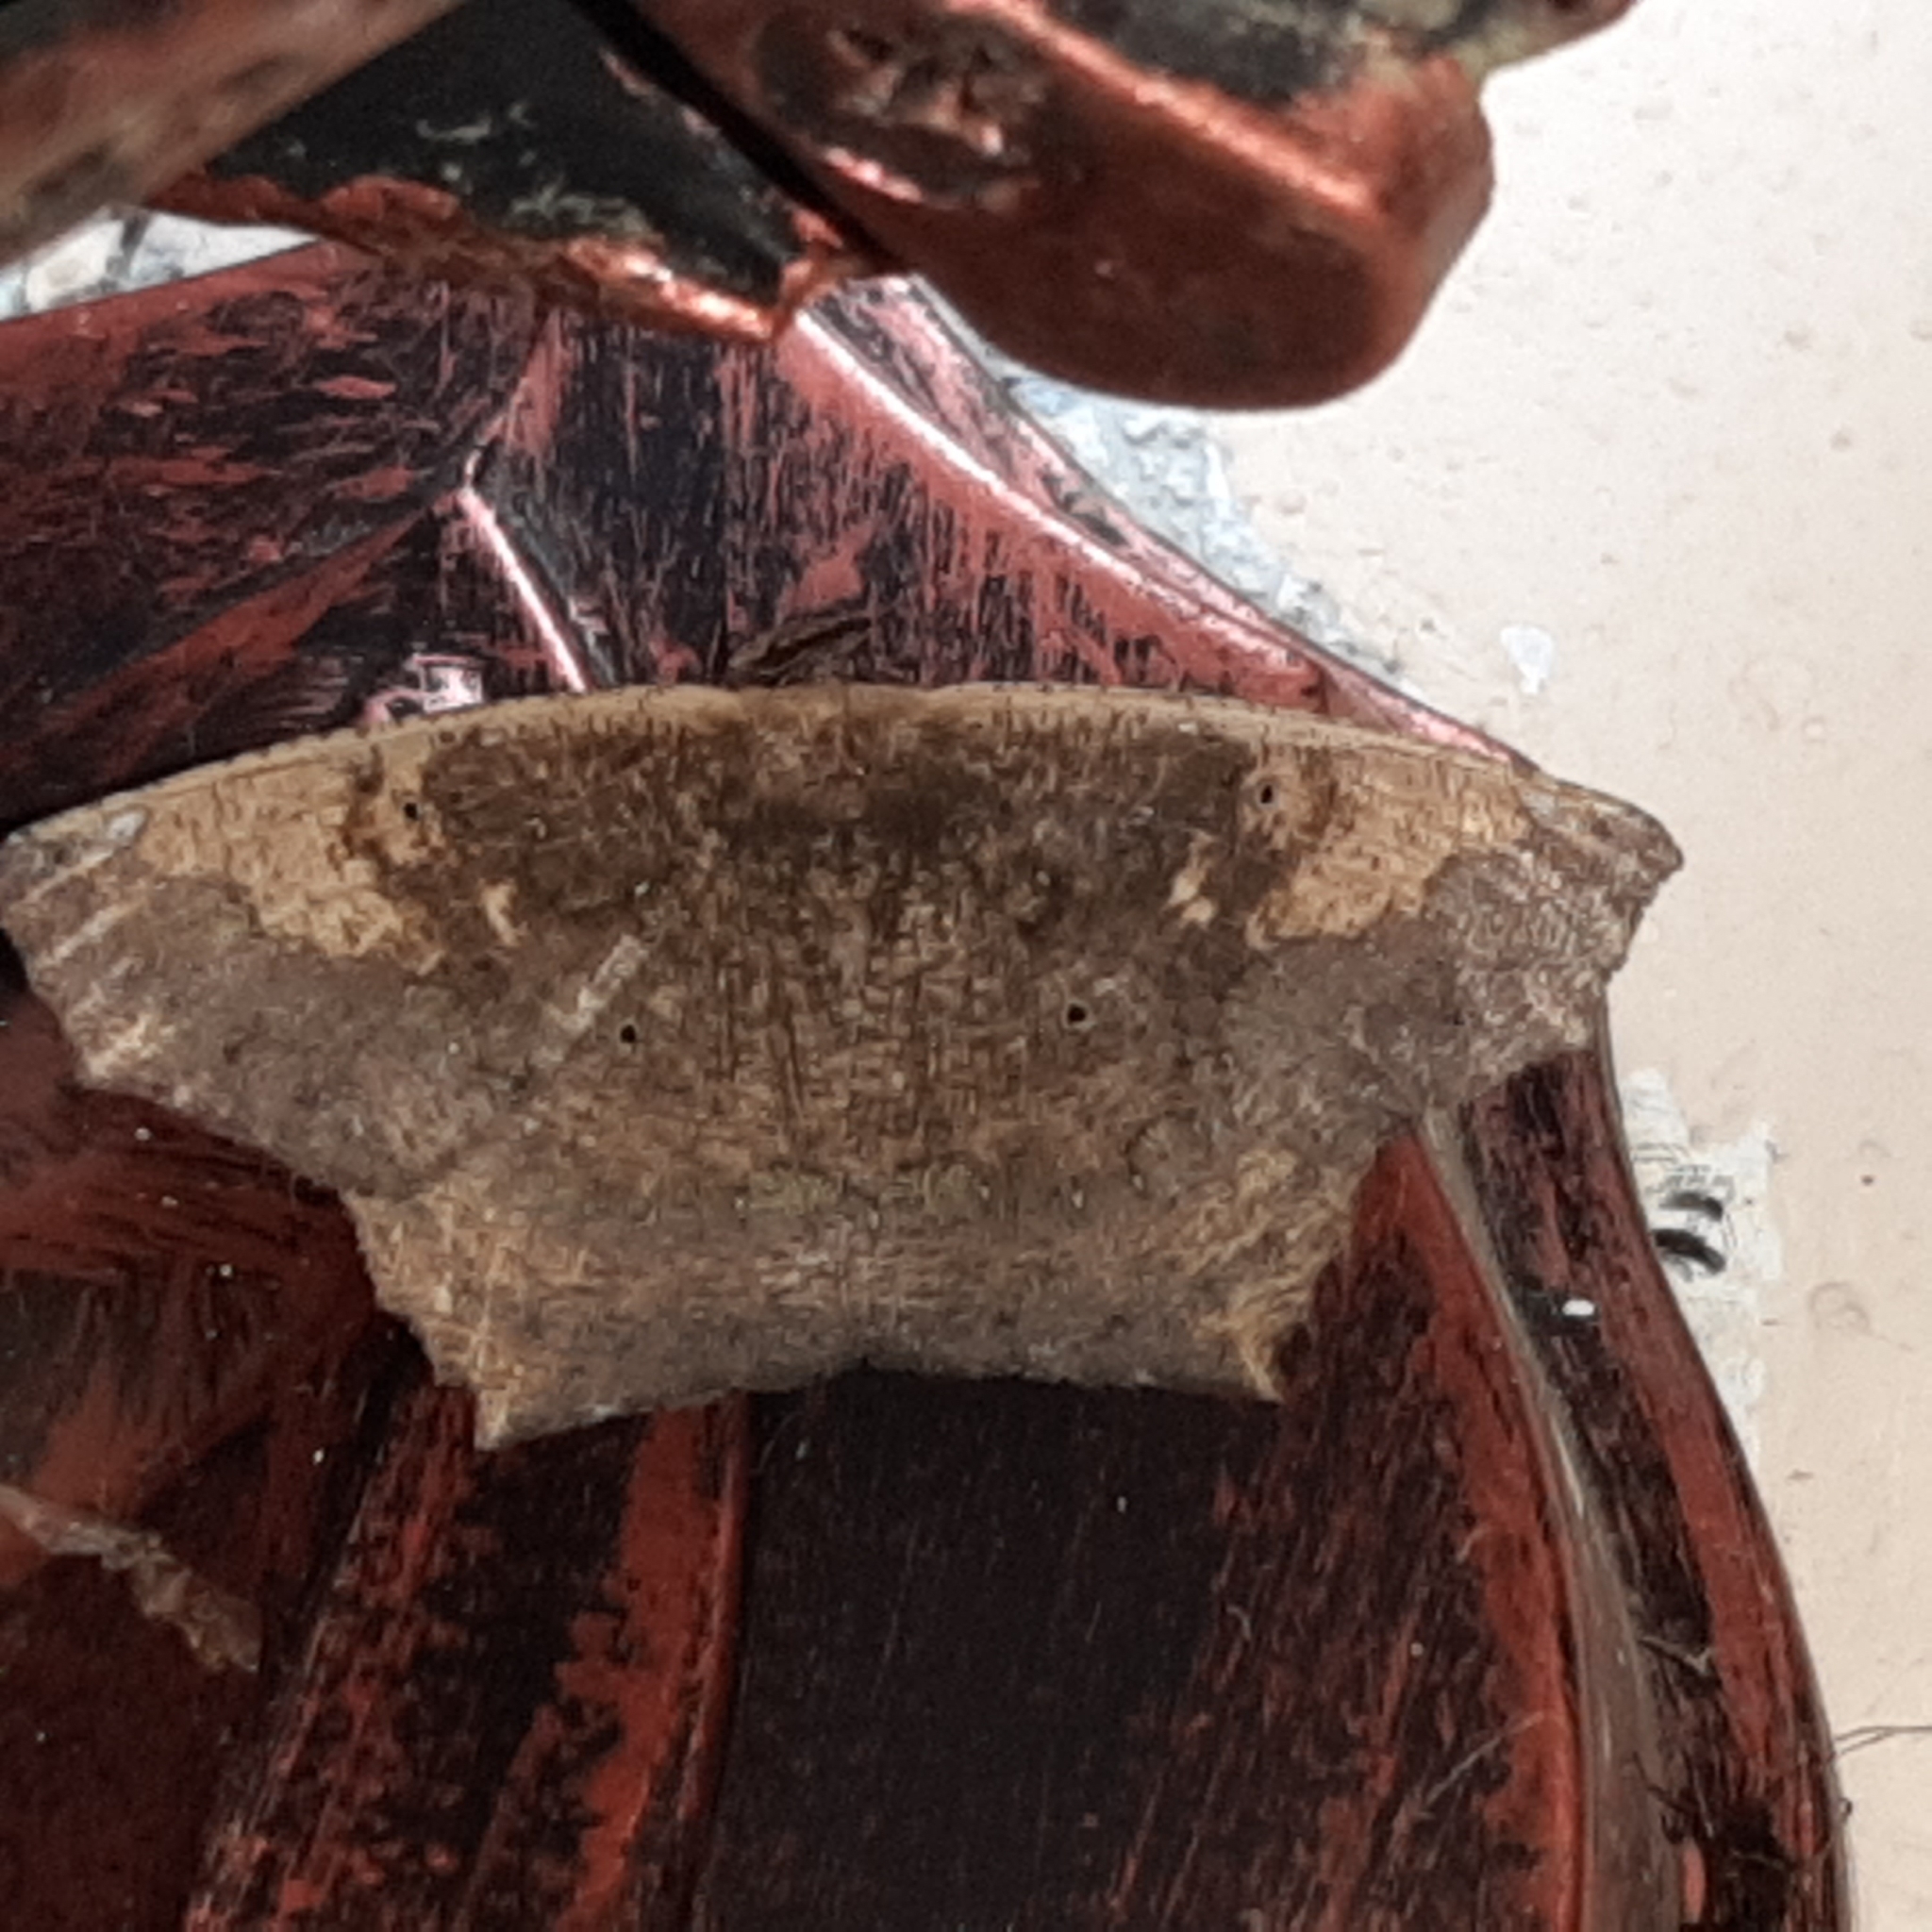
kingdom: Animalia
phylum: Arthropoda
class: Insecta
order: Lepidoptera
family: Geometridae
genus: Paragonia
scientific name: Paragonia cruraria
